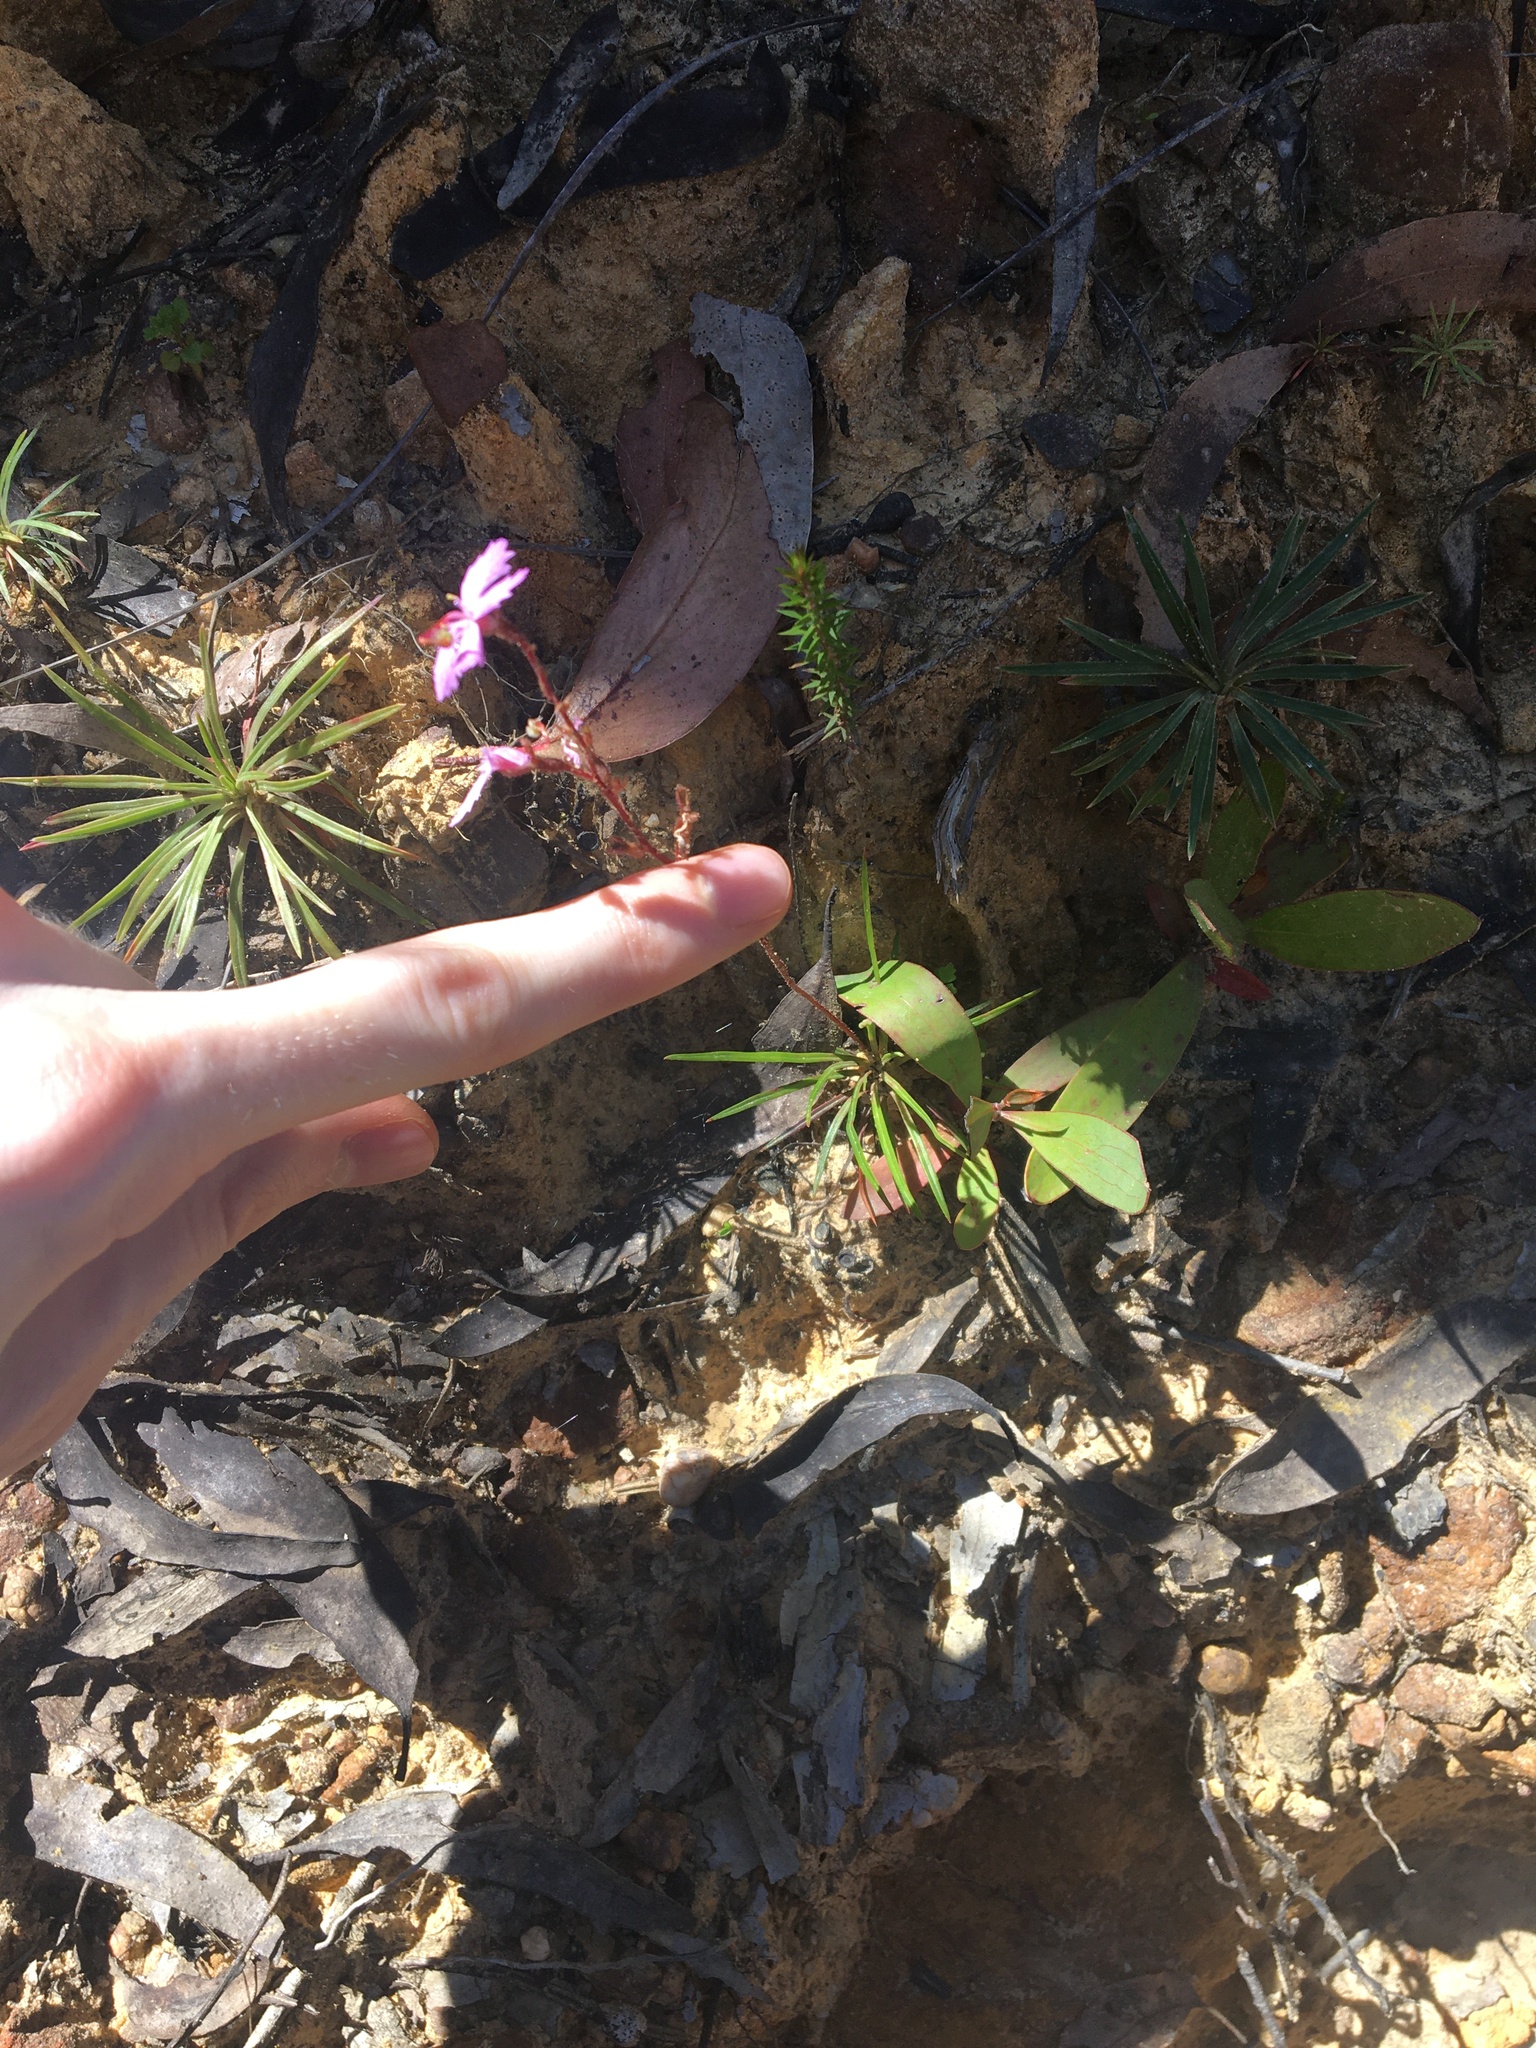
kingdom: Plantae
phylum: Tracheophyta
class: Magnoliopsida
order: Asterales
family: Stylidiaceae
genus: Stylidium
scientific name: Stylidium graminifolium
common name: Grass triggerplant
